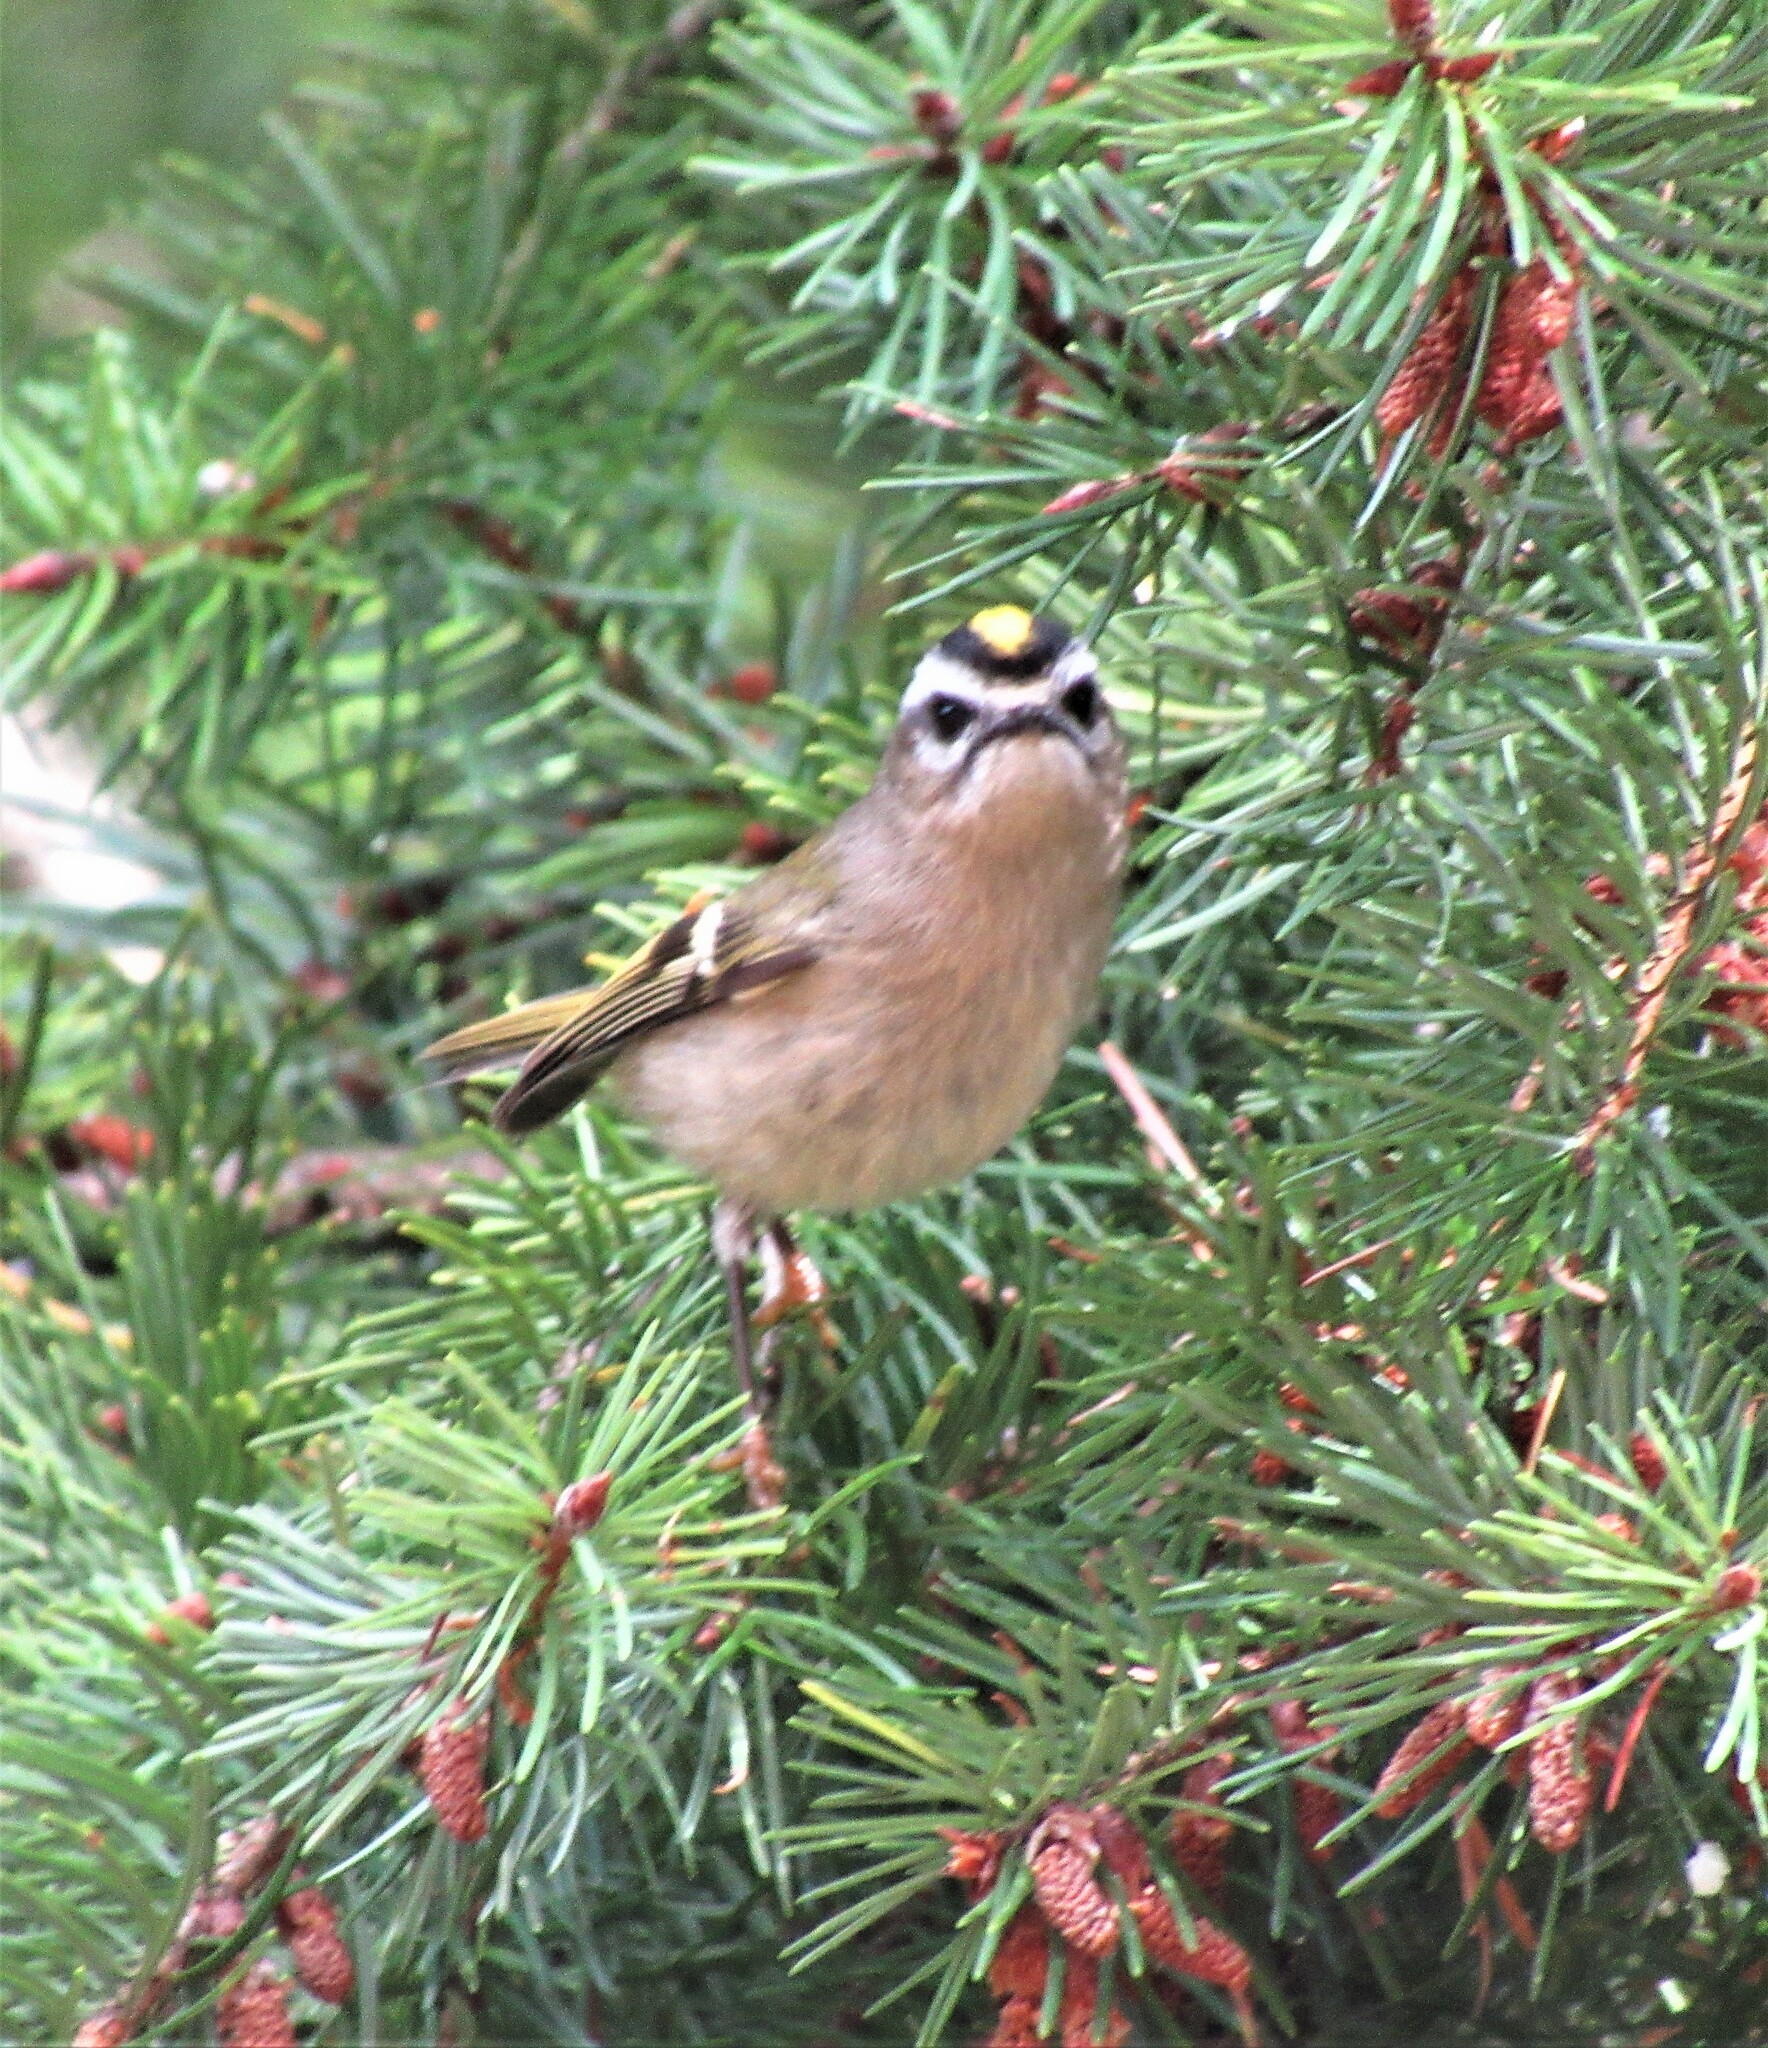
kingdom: Animalia
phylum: Chordata
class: Aves
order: Passeriformes
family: Regulidae
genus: Regulus
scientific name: Regulus satrapa
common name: Golden-crowned kinglet
